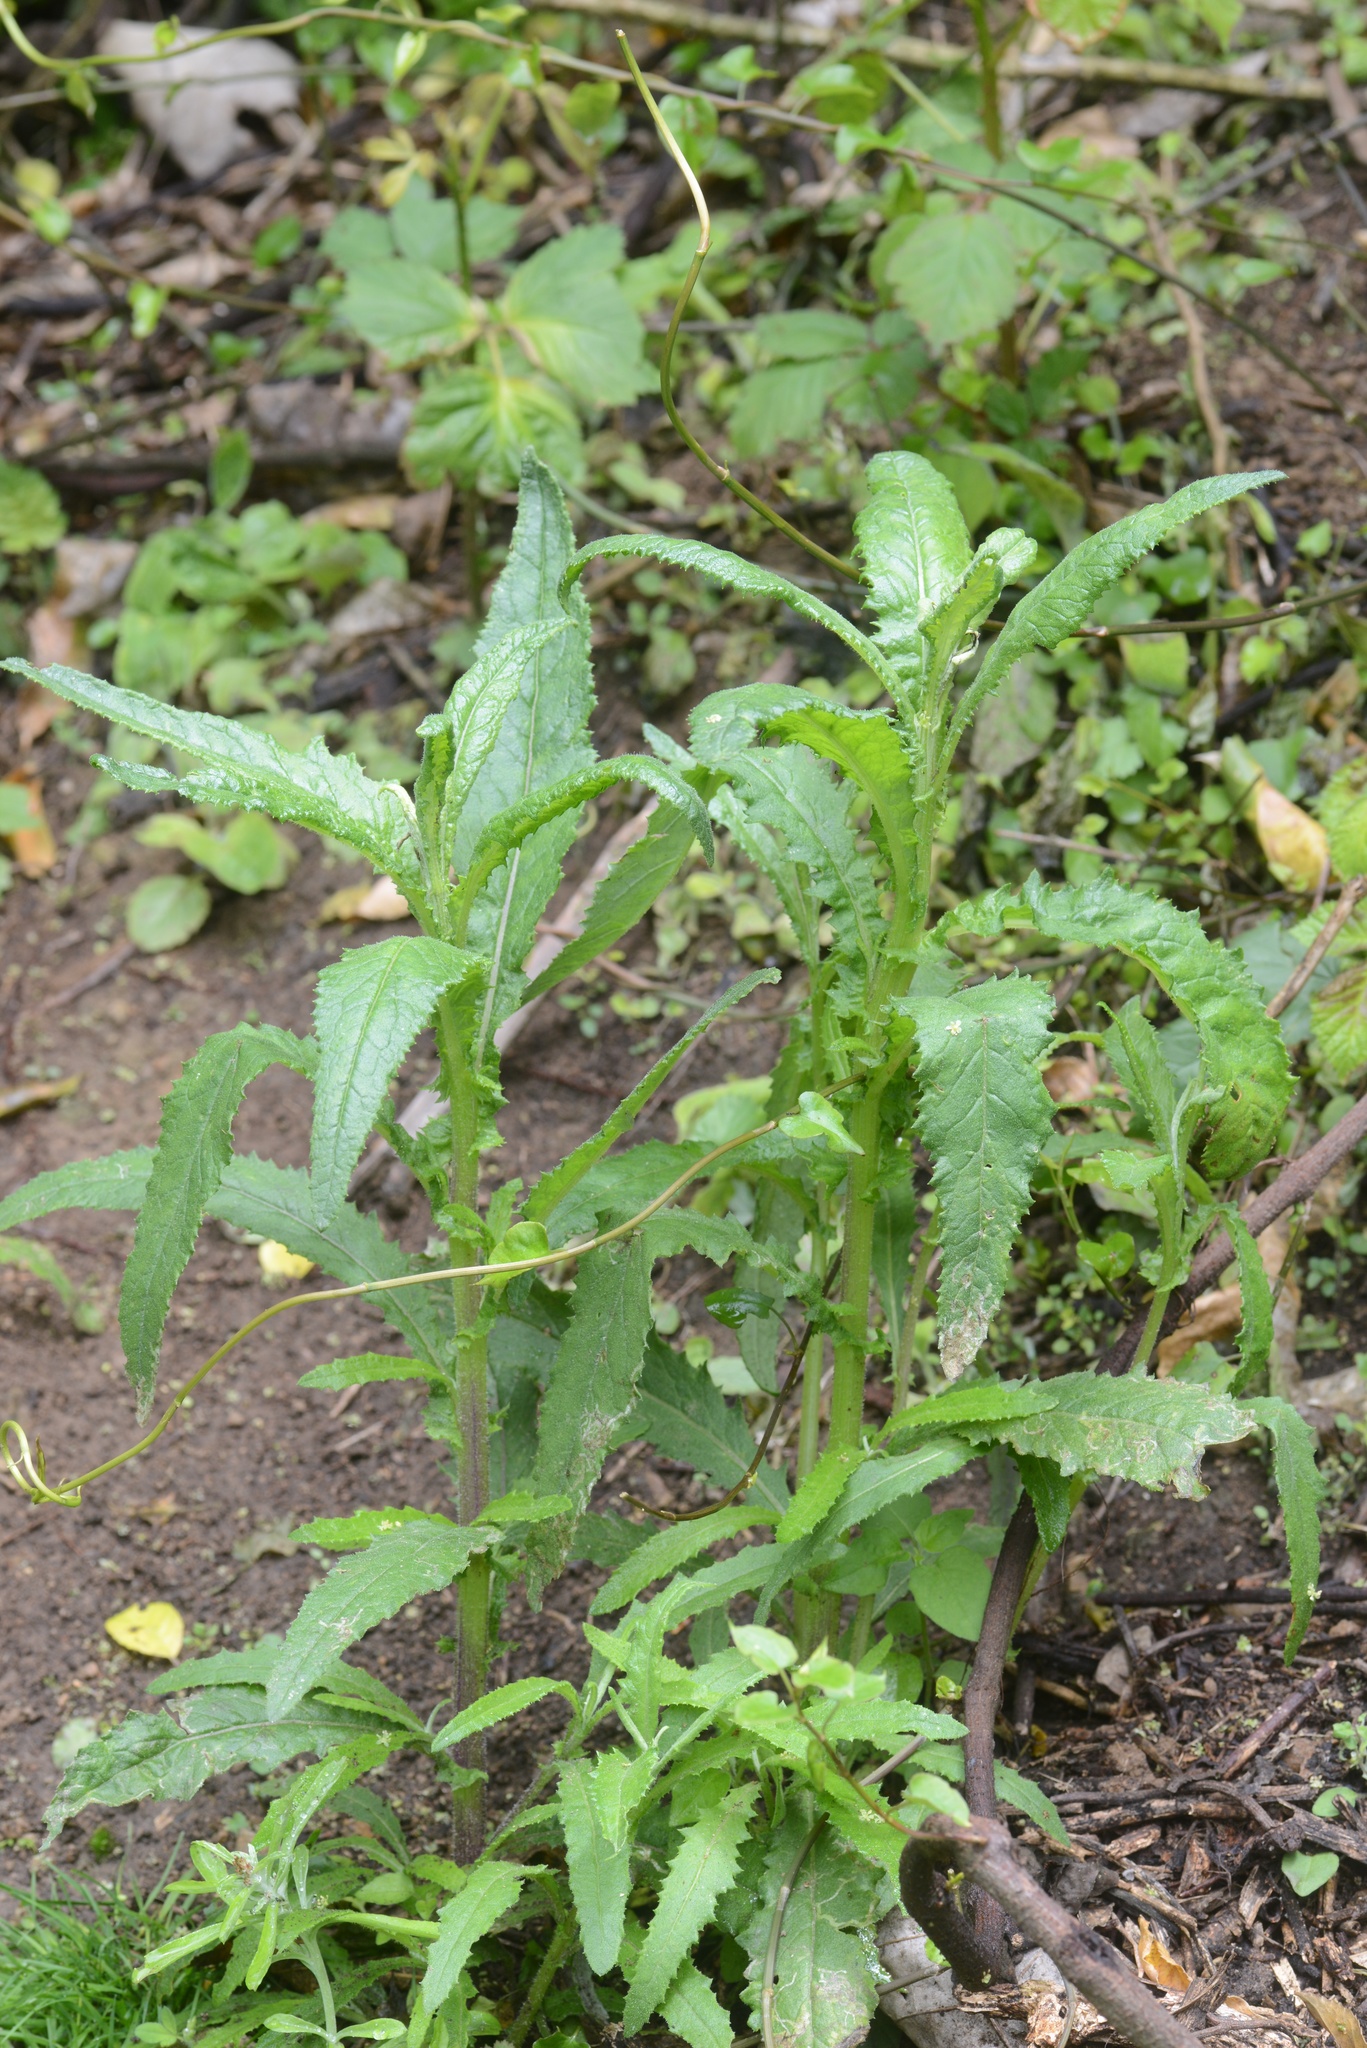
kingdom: Plantae
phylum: Tracheophyta
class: Magnoliopsida
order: Asterales
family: Asteraceae
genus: Senecio
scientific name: Senecio minimus
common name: Toothed fireweed
